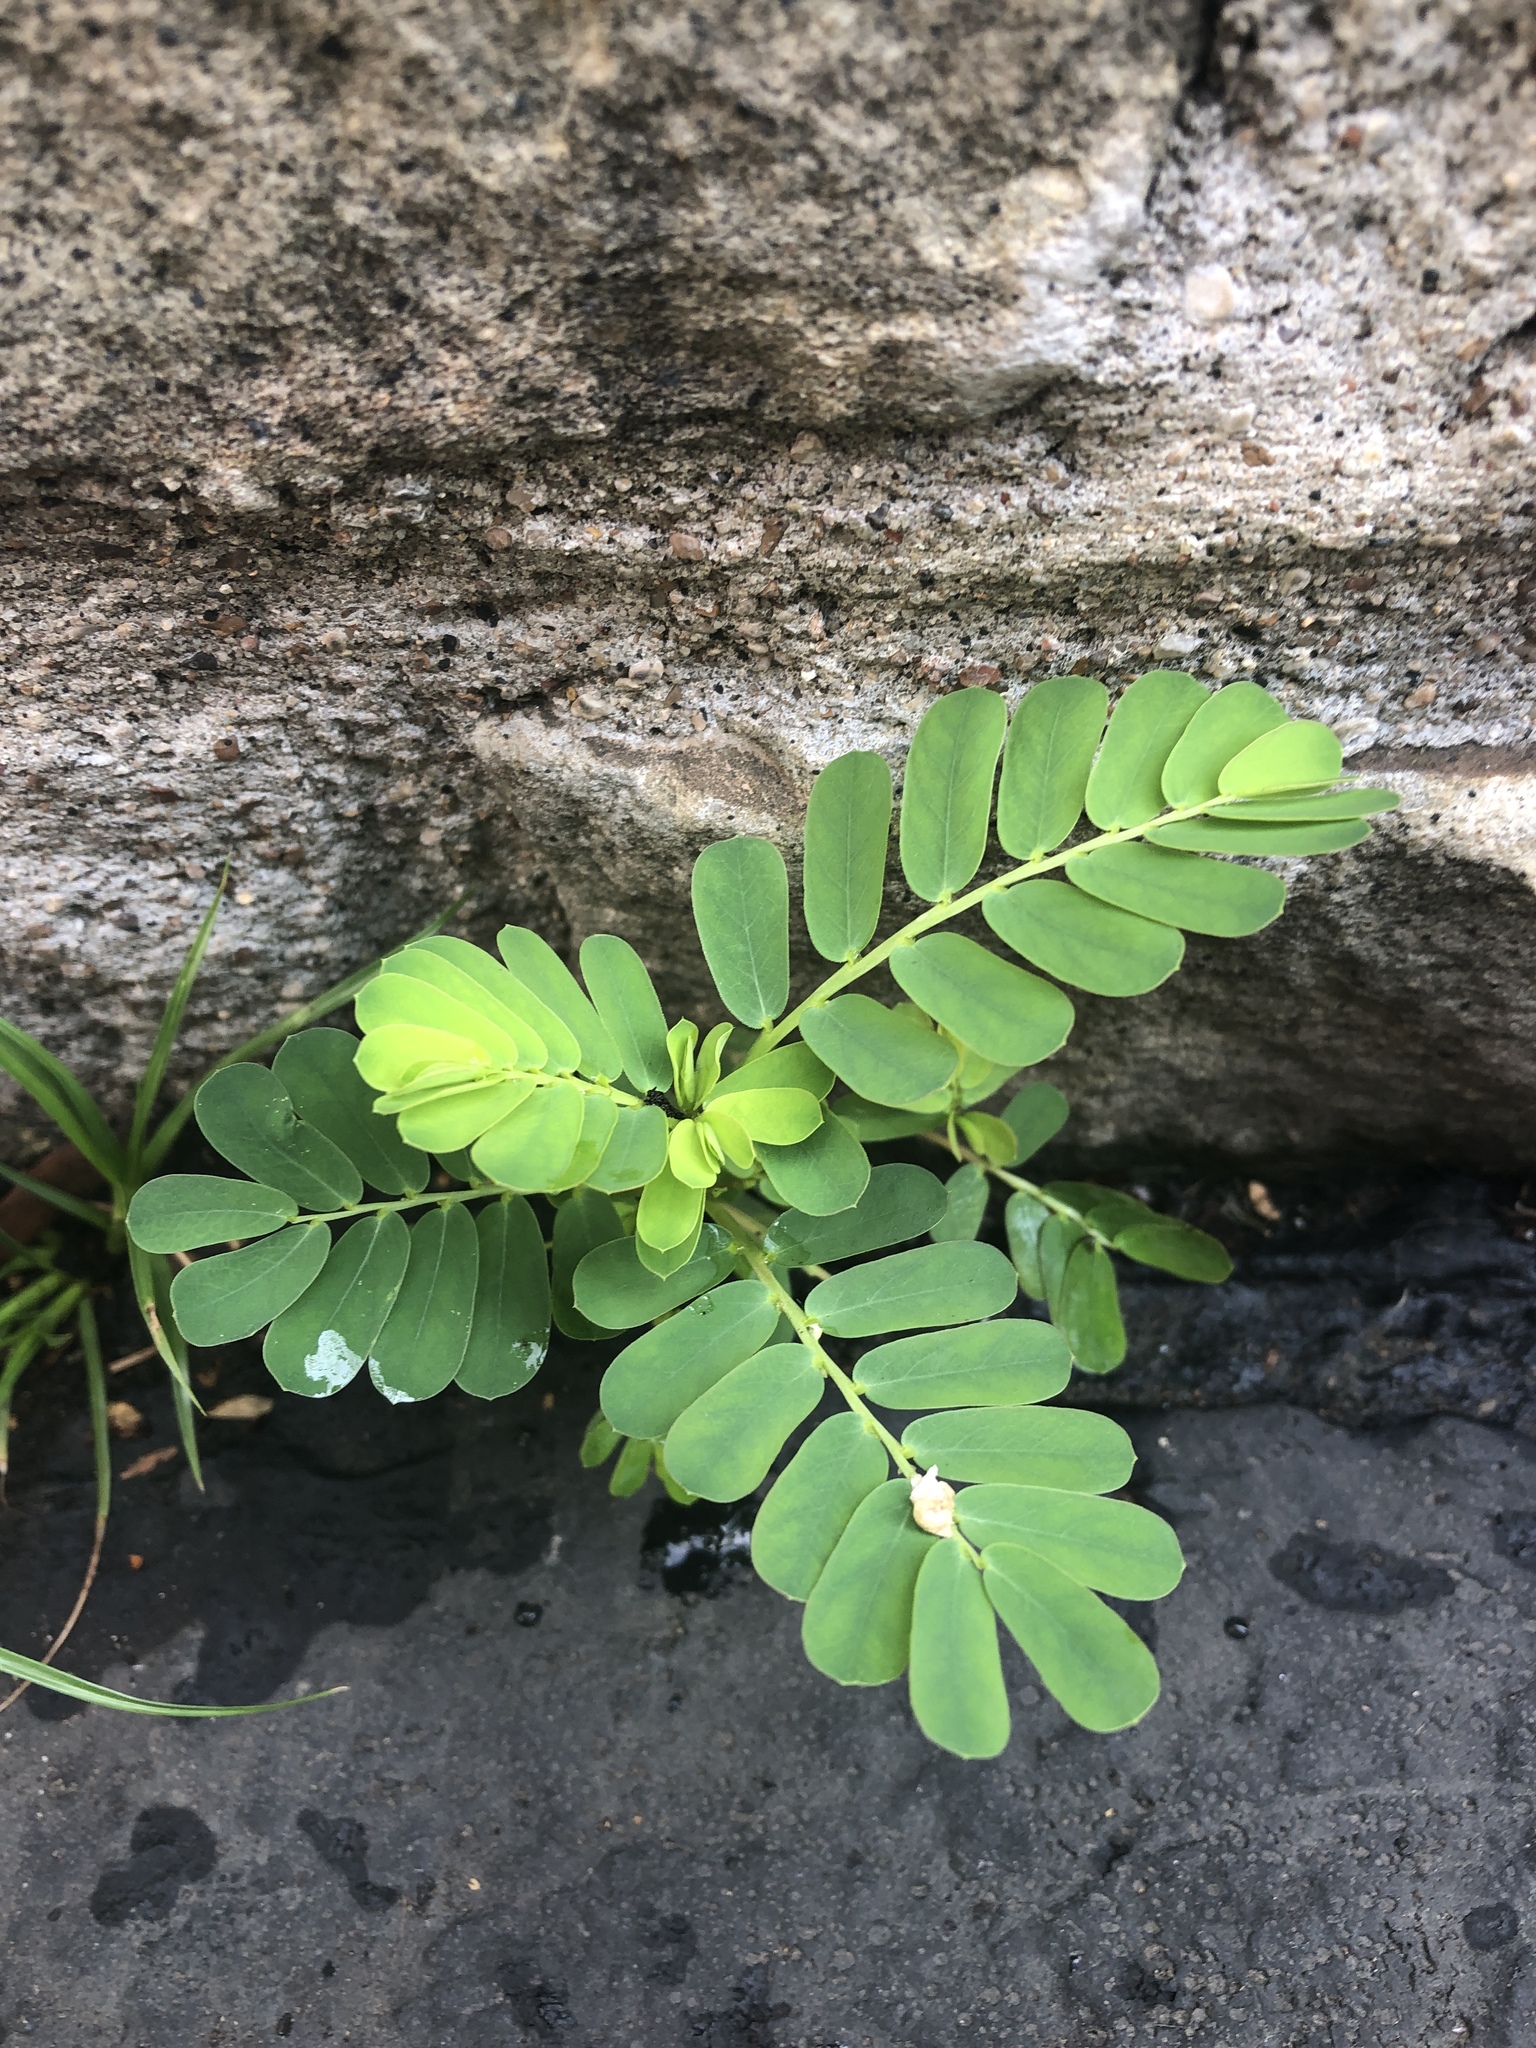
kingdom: Plantae
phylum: Tracheophyta
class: Magnoliopsida
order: Malpighiales
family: Phyllanthaceae
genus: Phyllanthus
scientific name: Phyllanthus urinaria
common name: Chamber bitter
